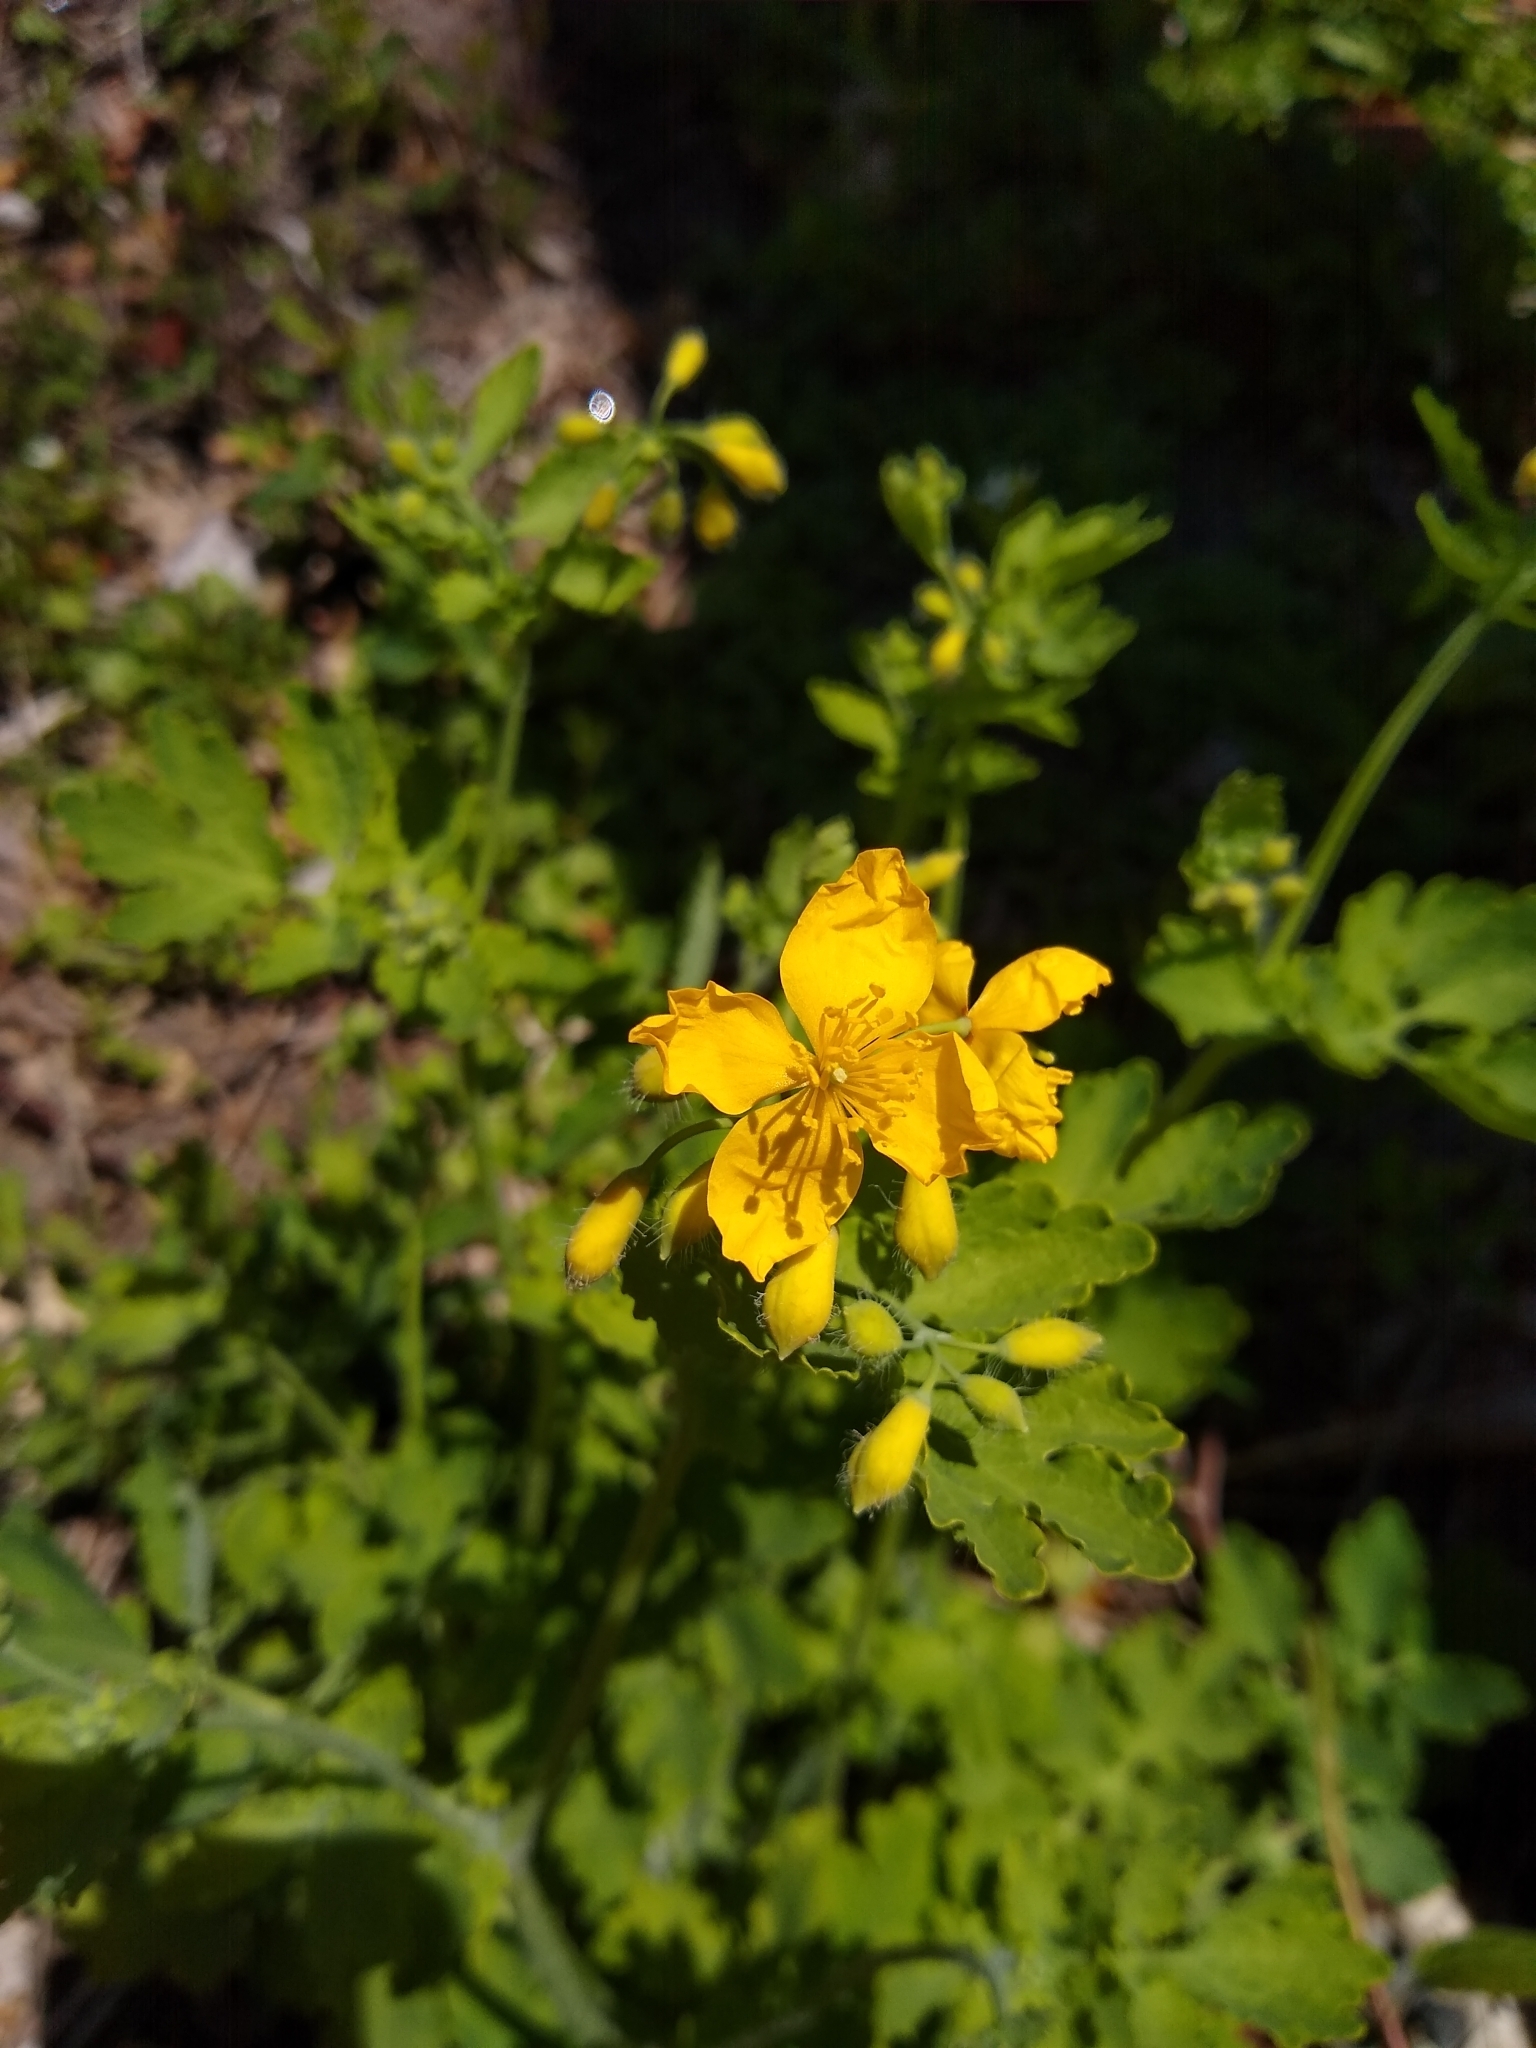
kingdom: Plantae
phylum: Tracheophyta
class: Magnoliopsida
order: Ranunculales
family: Papaveraceae
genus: Chelidonium
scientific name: Chelidonium majus
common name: Greater celandine
